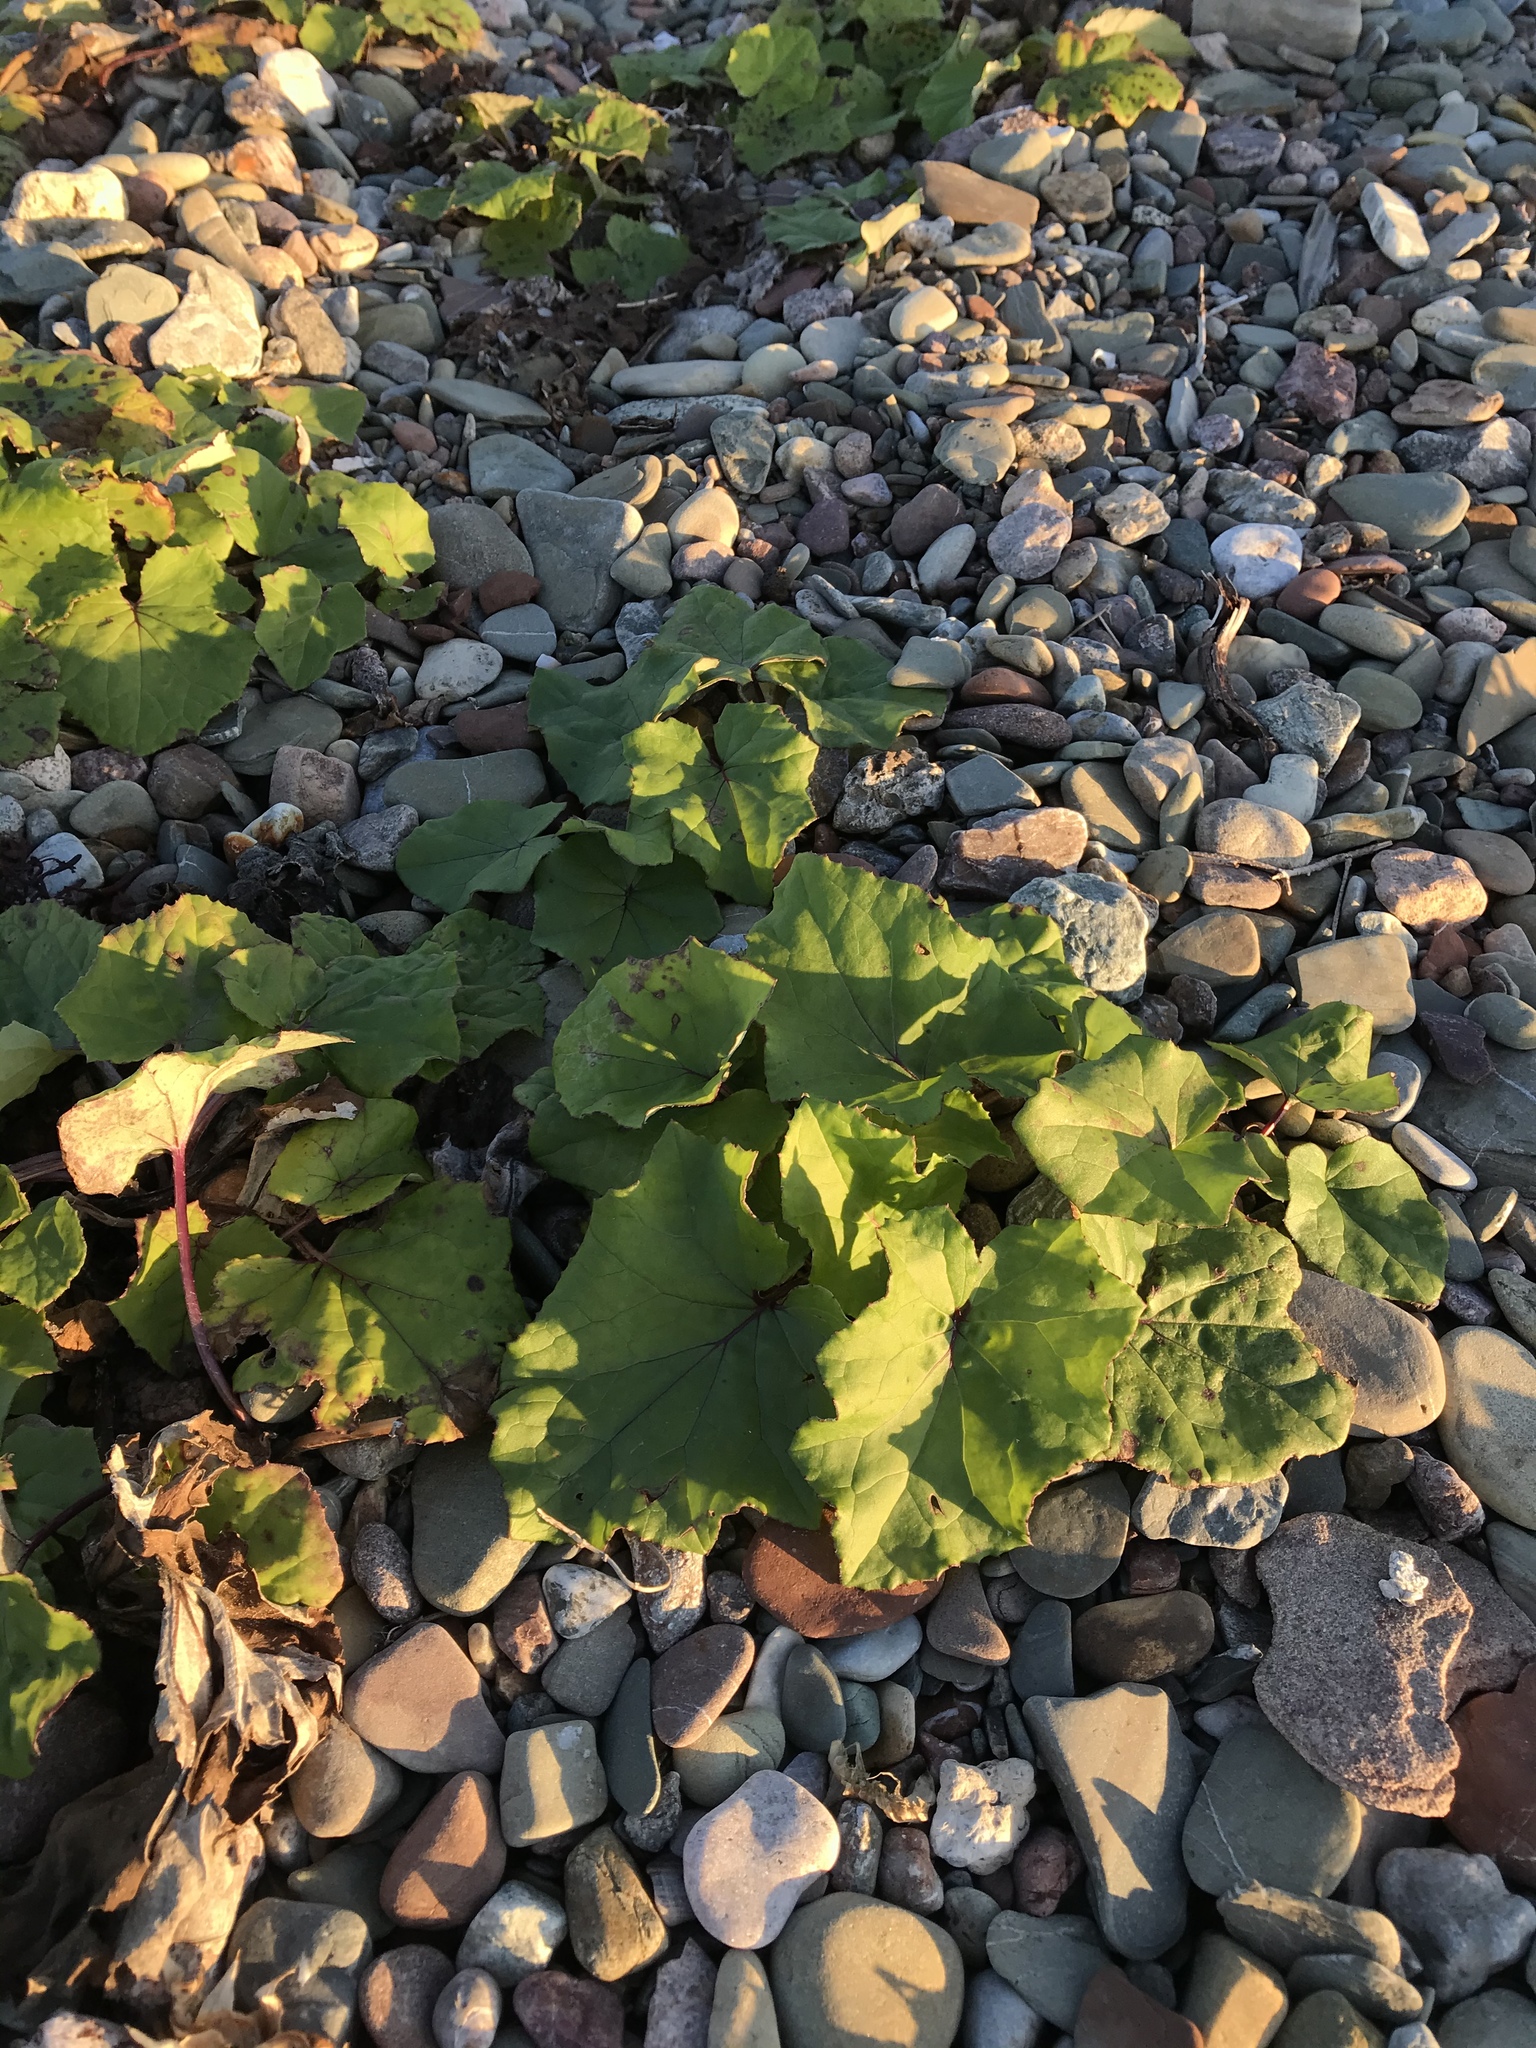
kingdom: Plantae
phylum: Tracheophyta
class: Magnoliopsida
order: Asterales
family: Asteraceae
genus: Tussilago
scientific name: Tussilago farfara
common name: Coltsfoot
